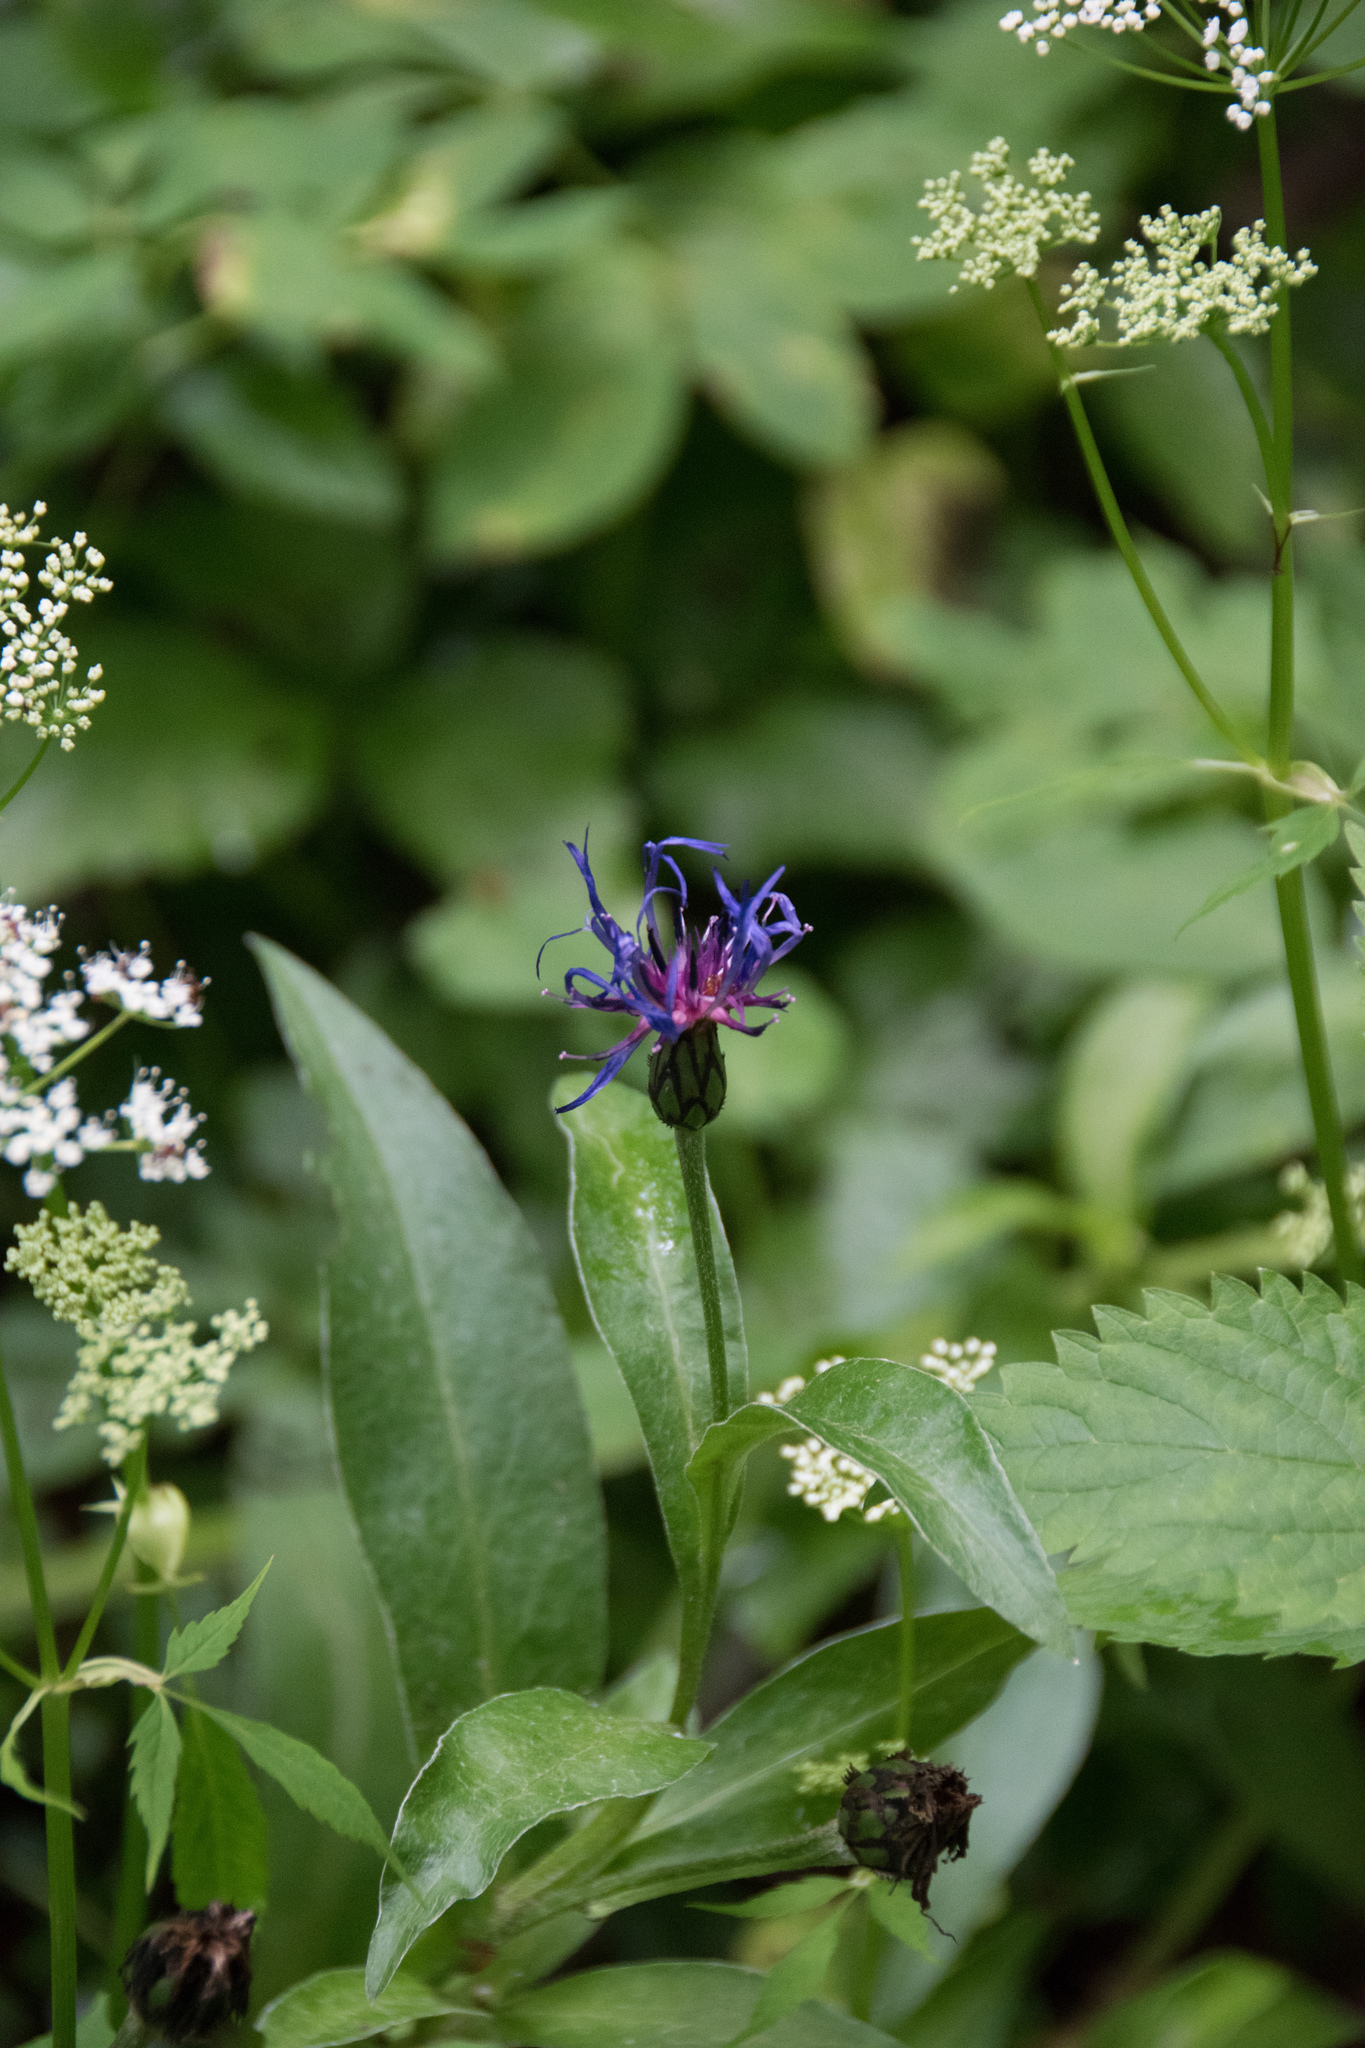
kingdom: Plantae
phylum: Tracheophyta
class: Magnoliopsida
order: Asterales
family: Asteraceae
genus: Centaurea
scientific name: Centaurea montana
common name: Perennial cornflower
